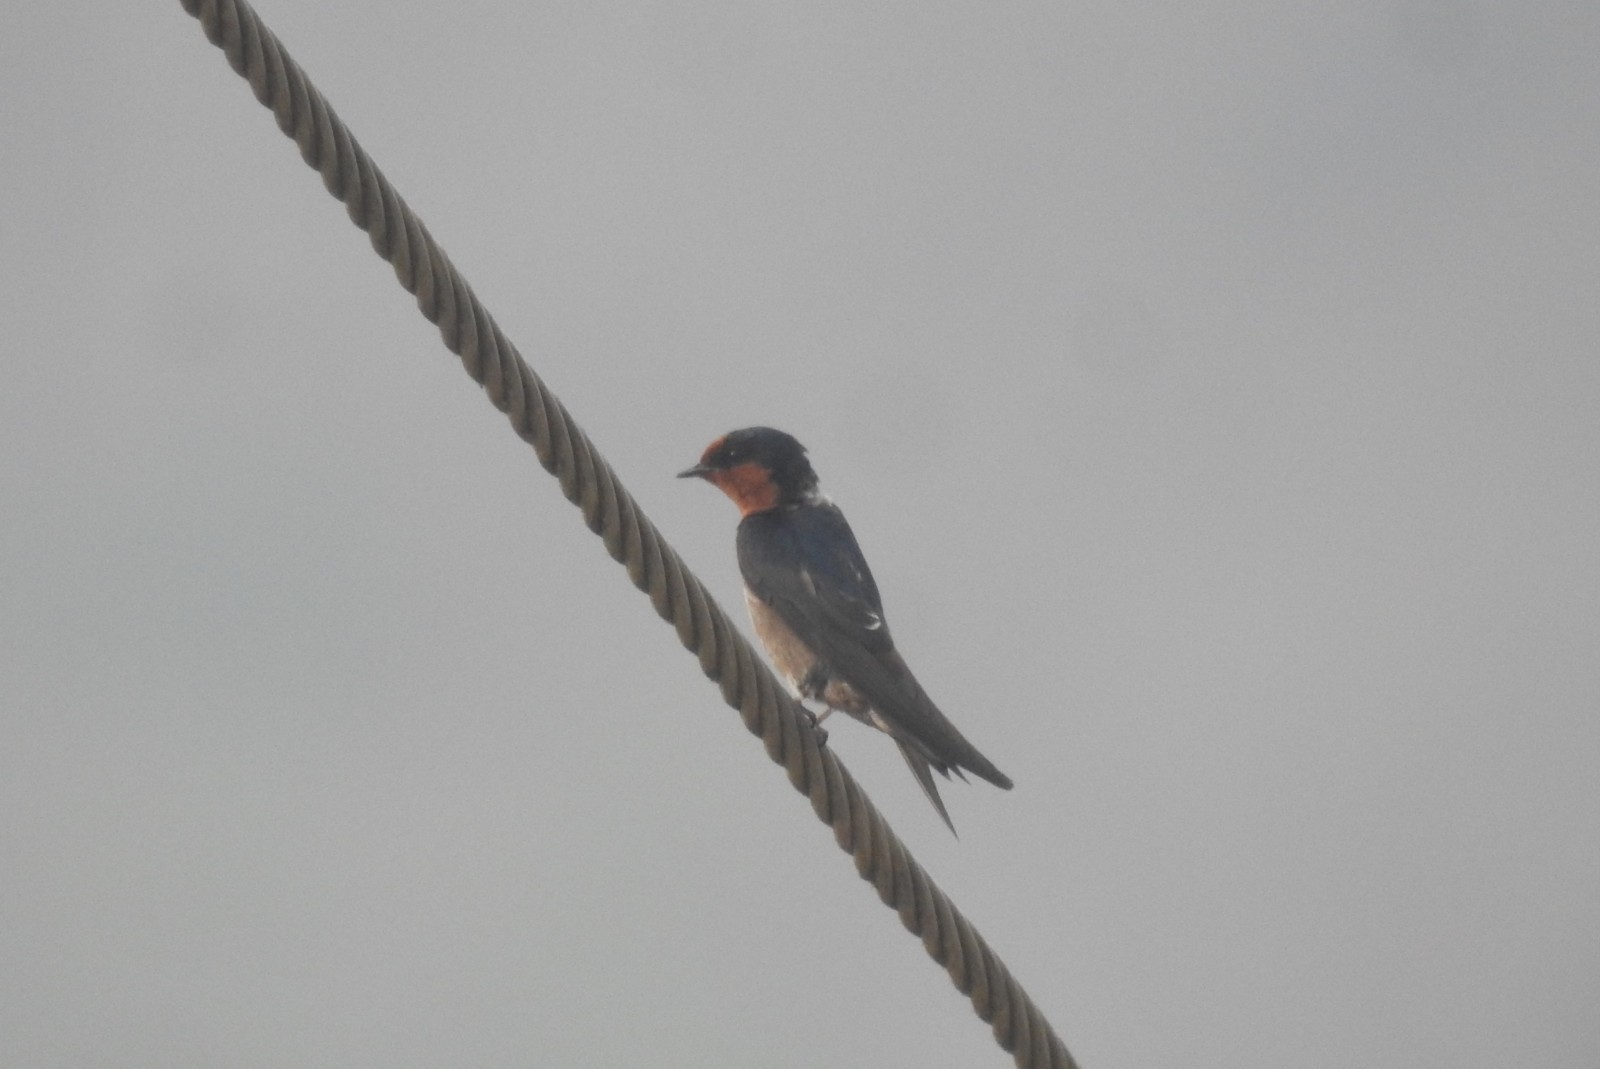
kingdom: Animalia
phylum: Chordata
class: Aves
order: Passeriformes
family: Hirundinidae
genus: Hirundo
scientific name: Hirundo rustica
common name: Barn swallow
